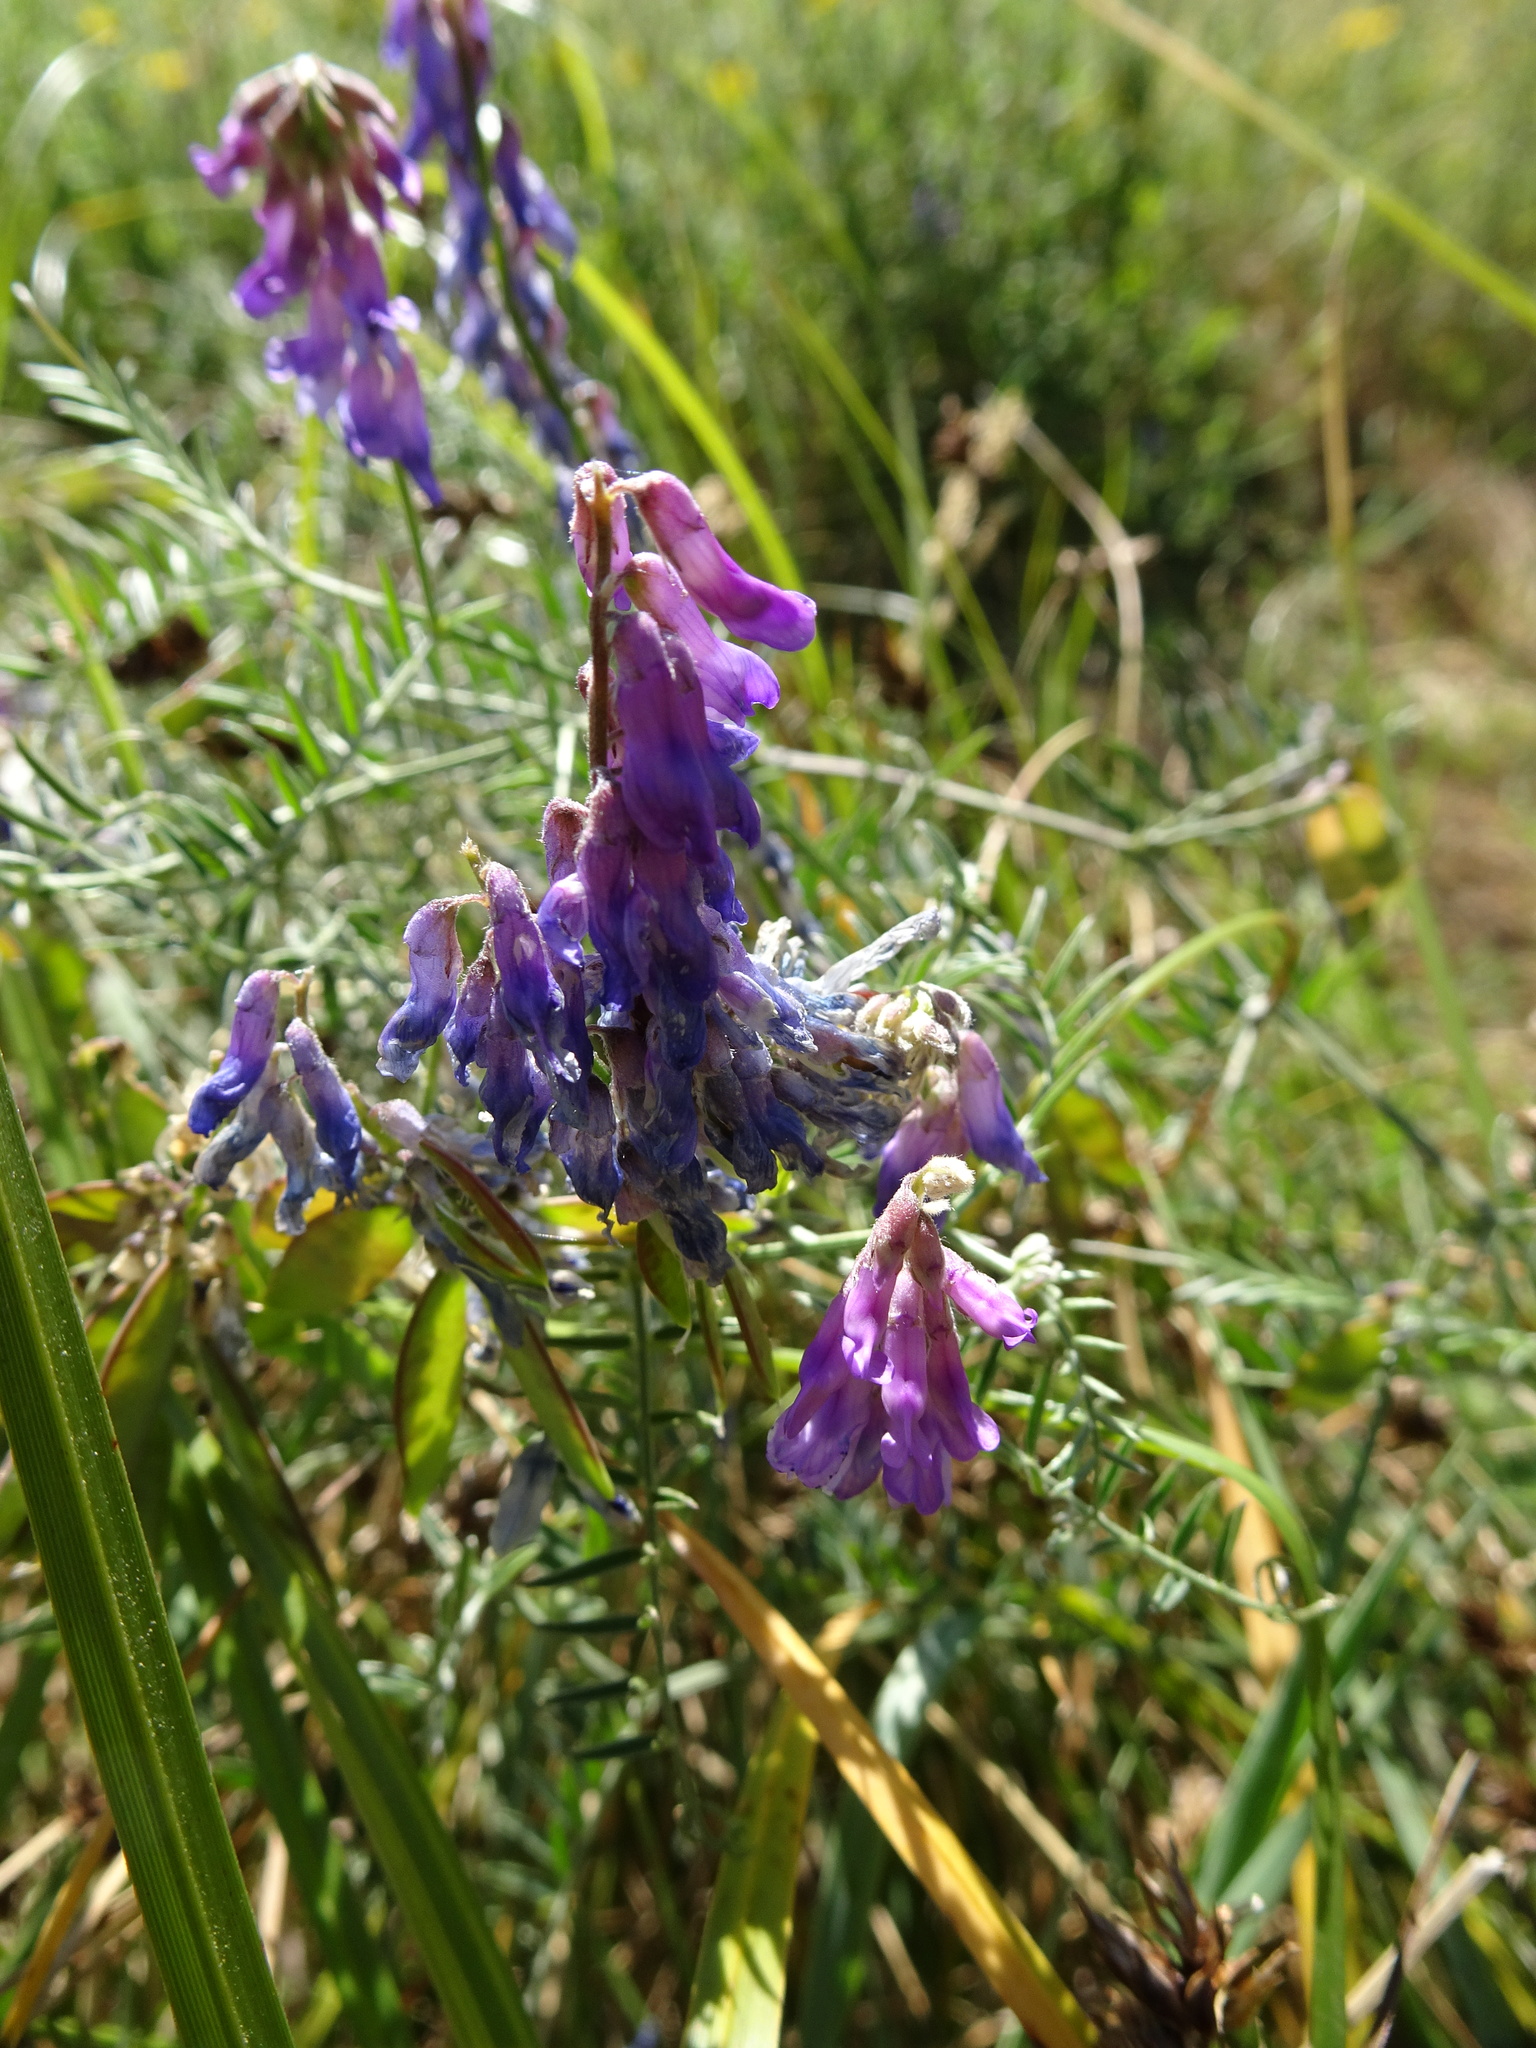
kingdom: Plantae
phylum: Tracheophyta
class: Magnoliopsida
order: Fabales
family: Fabaceae
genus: Vicia
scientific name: Vicia cracca
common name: Bird vetch
